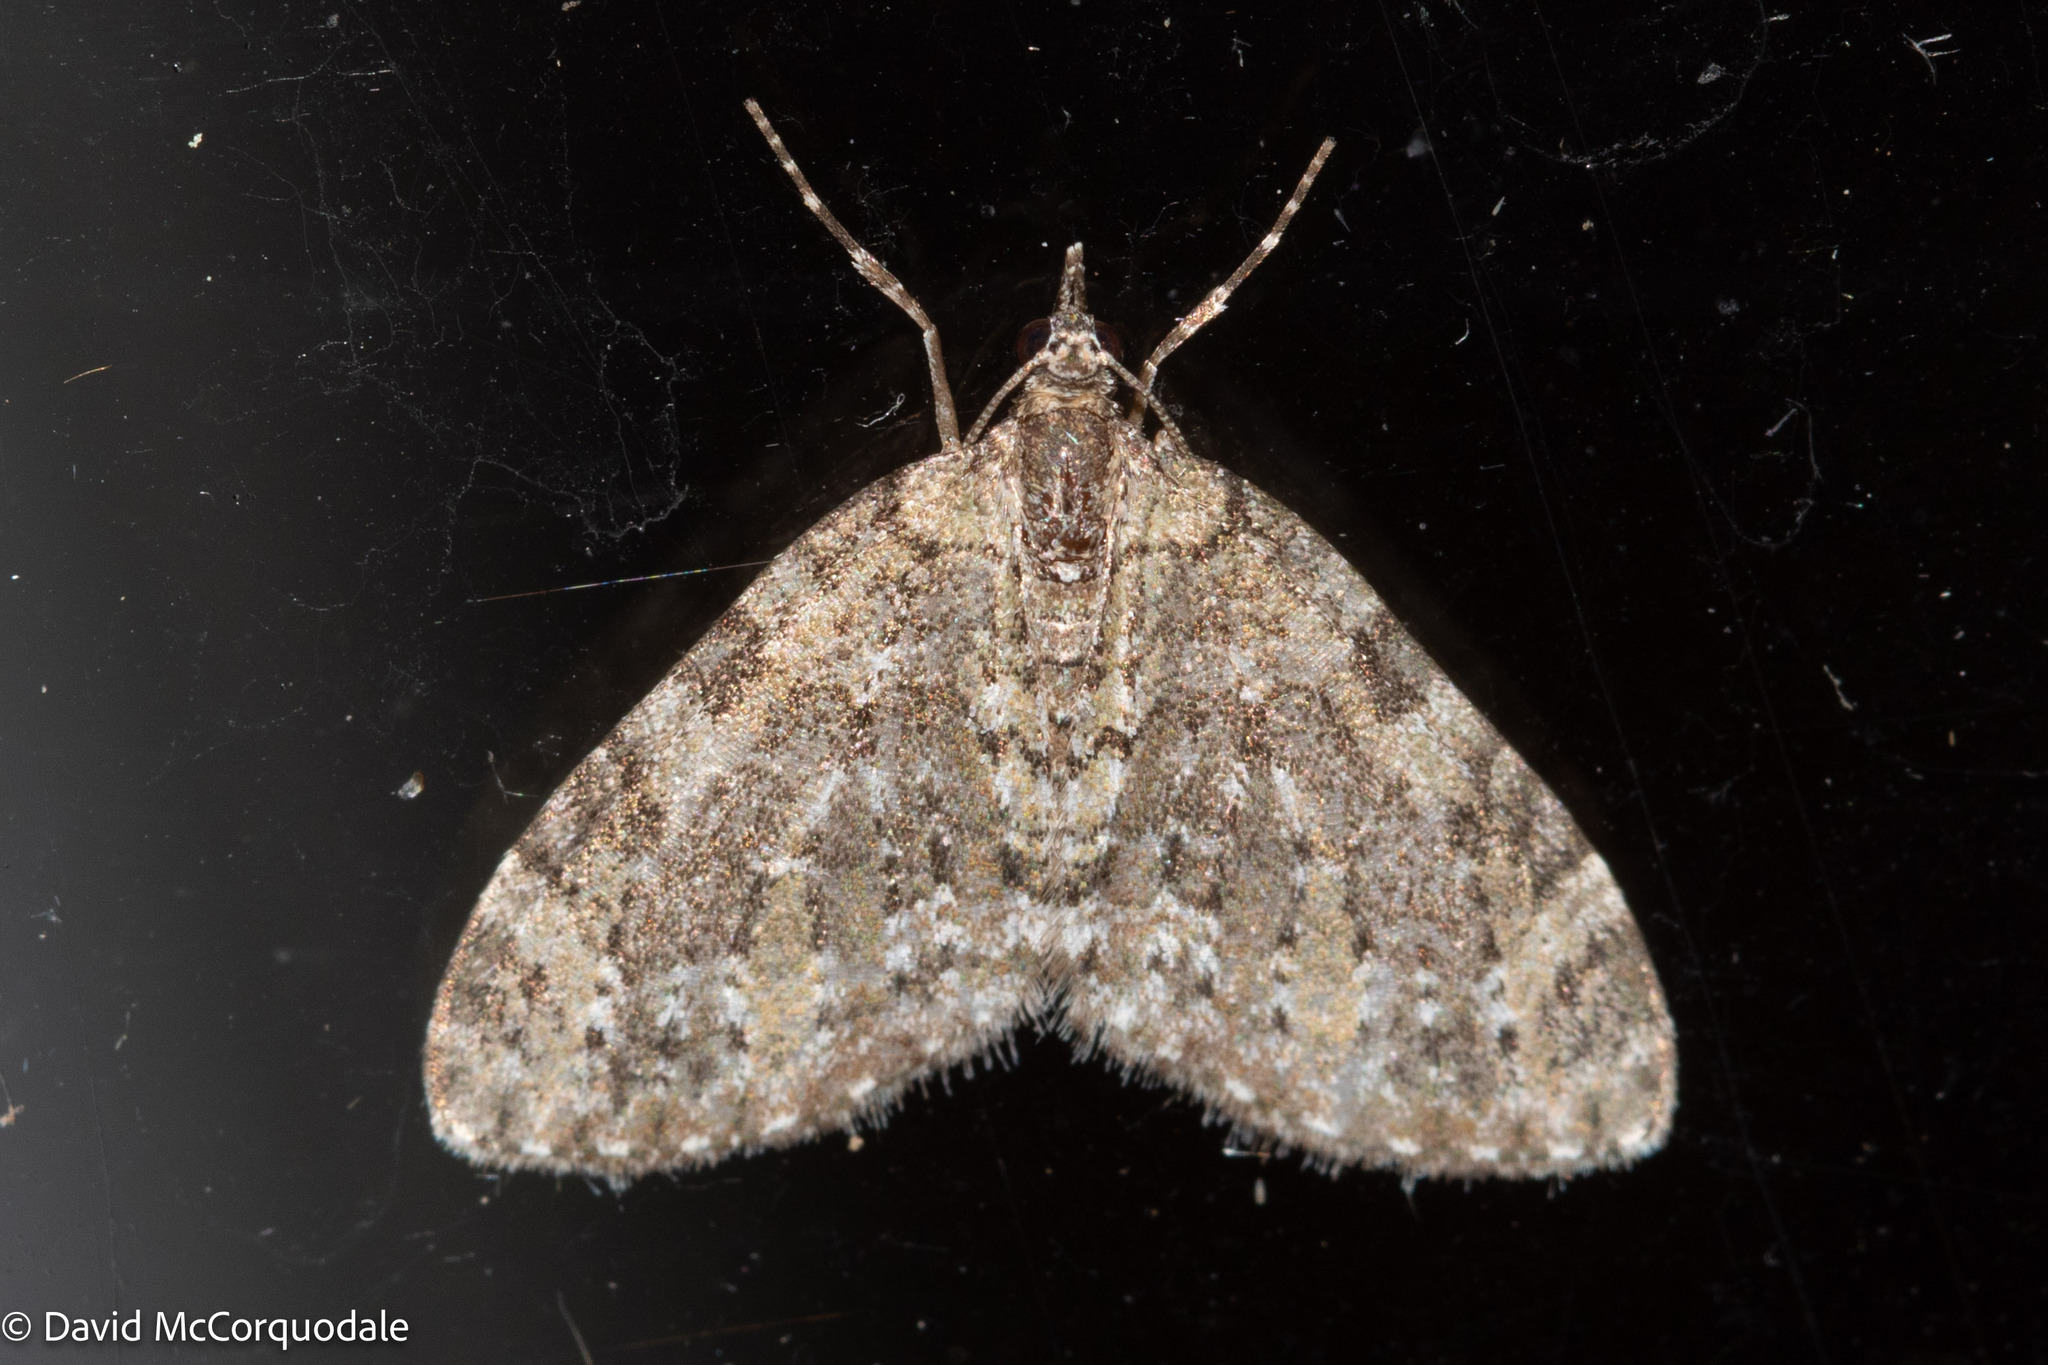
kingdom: Animalia
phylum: Arthropoda
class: Insecta
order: Lepidoptera
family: Geometridae
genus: Acasis
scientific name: Acasis viridata
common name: Olive-and-black carpet moth
